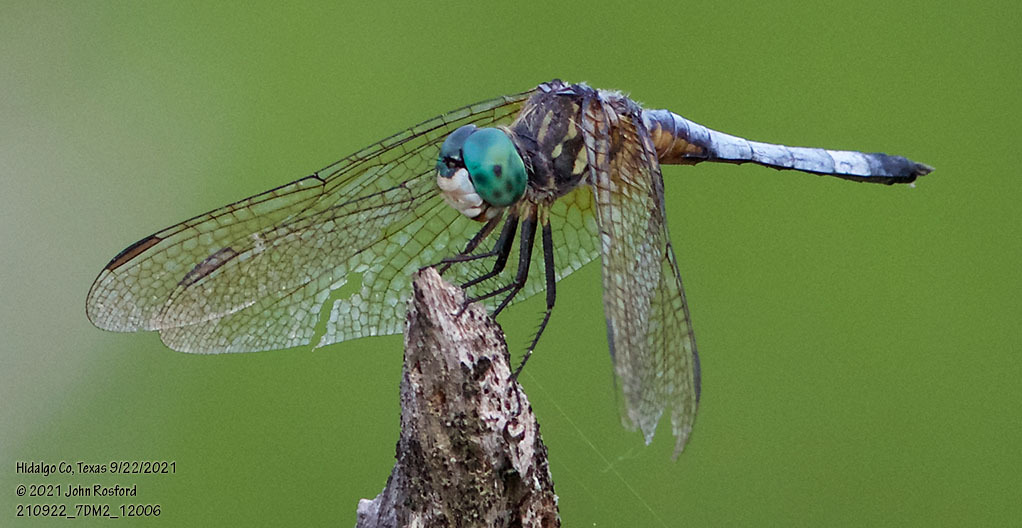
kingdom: Animalia
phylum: Arthropoda
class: Insecta
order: Odonata
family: Libellulidae
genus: Pachydiplax
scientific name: Pachydiplax longipennis
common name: Blue dasher
